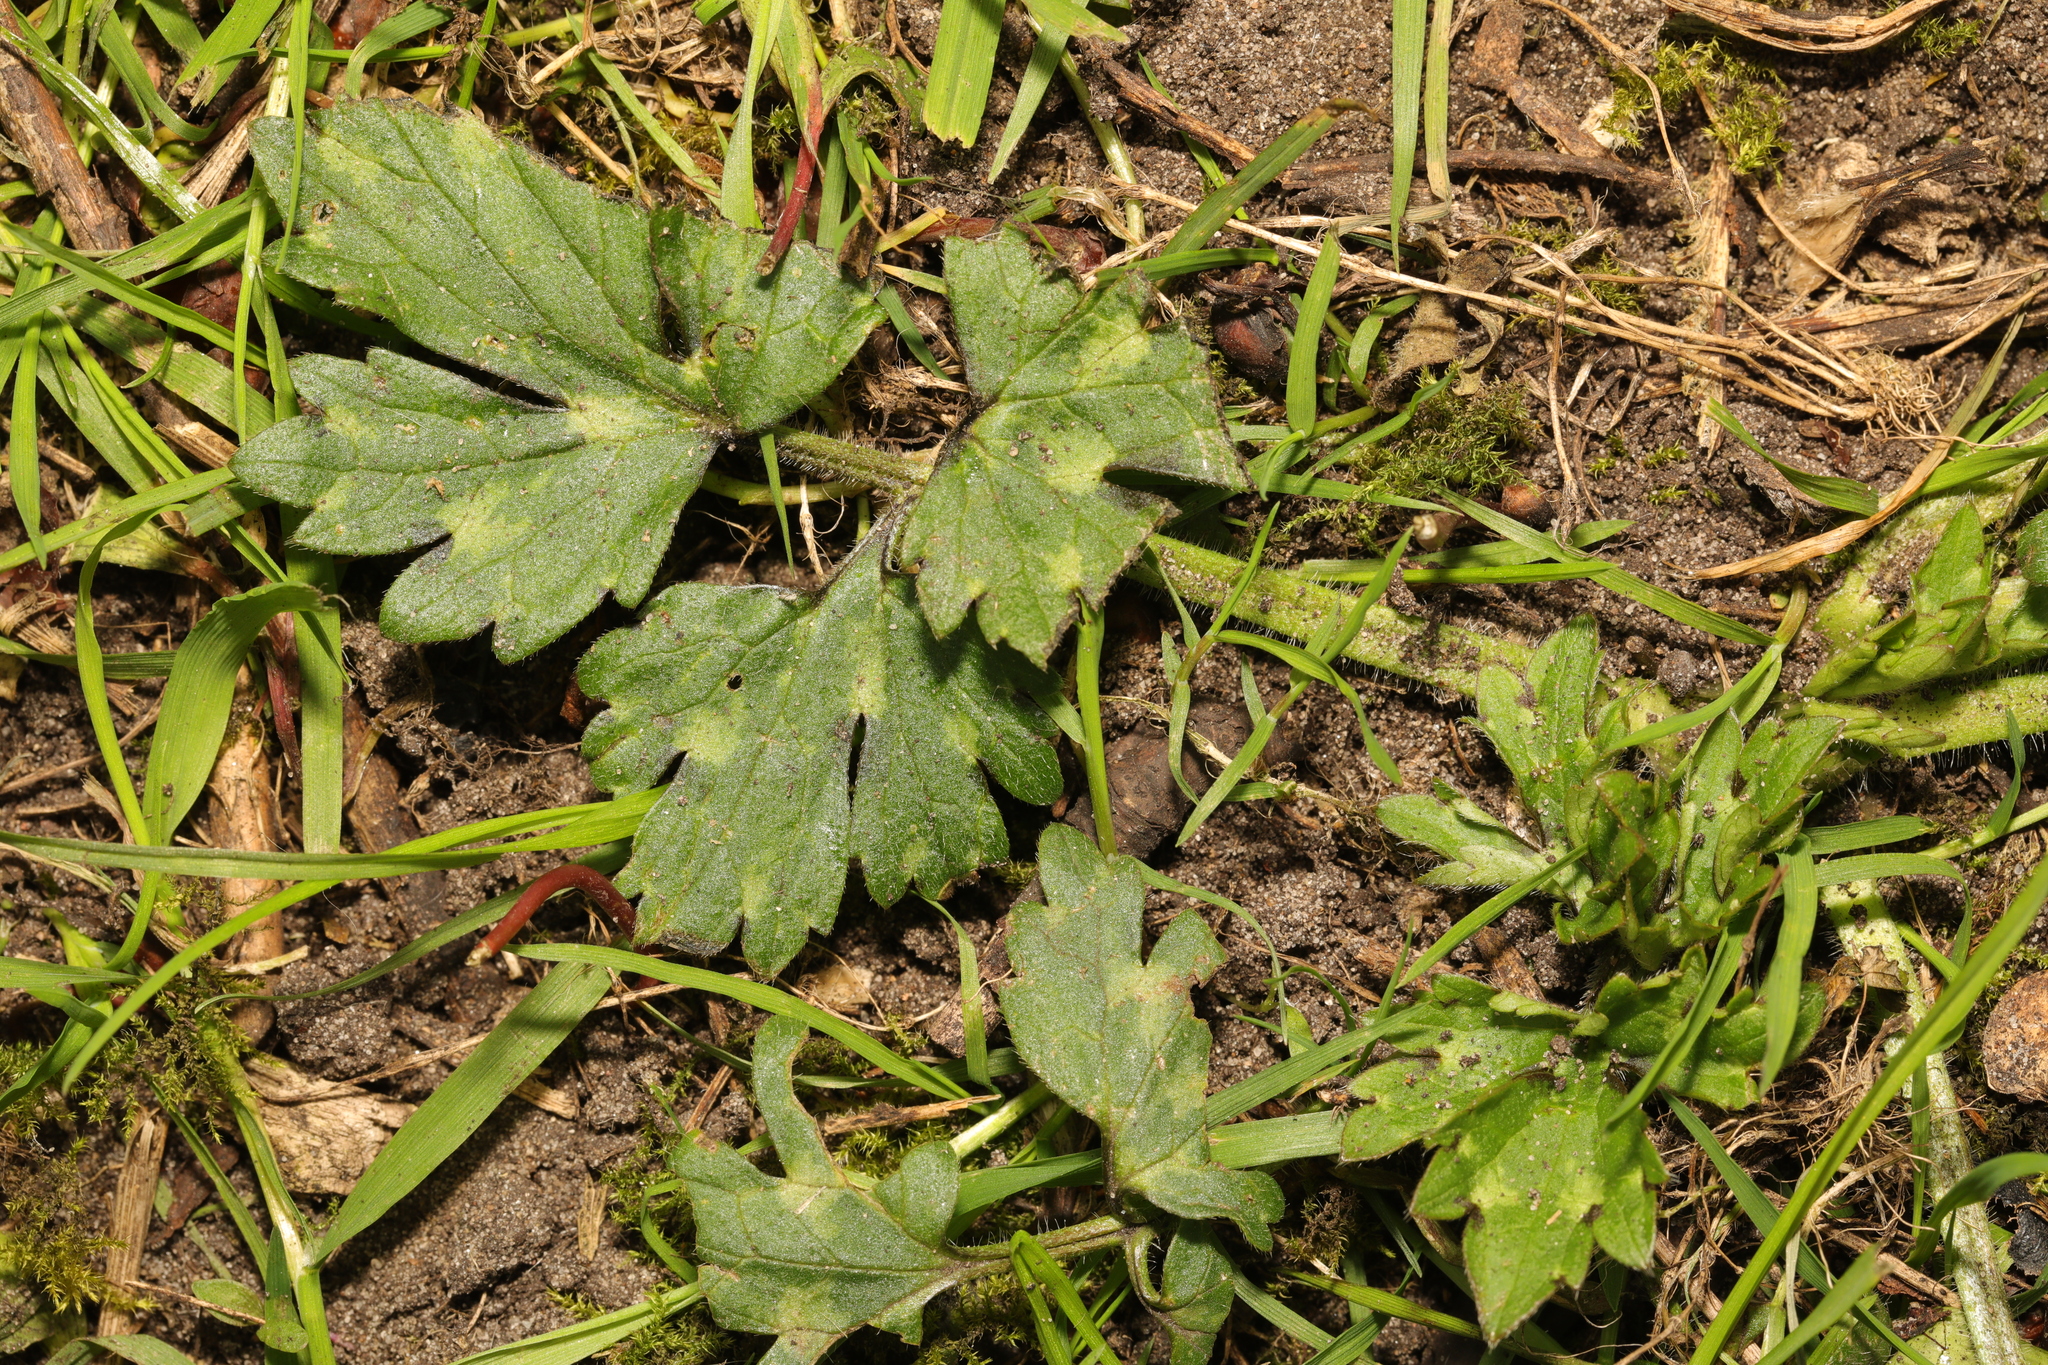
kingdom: Plantae
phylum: Tracheophyta
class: Magnoliopsida
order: Ranunculales
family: Ranunculaceae
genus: Ranunculus
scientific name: Ranunculus repens
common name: Creeping buttercup
